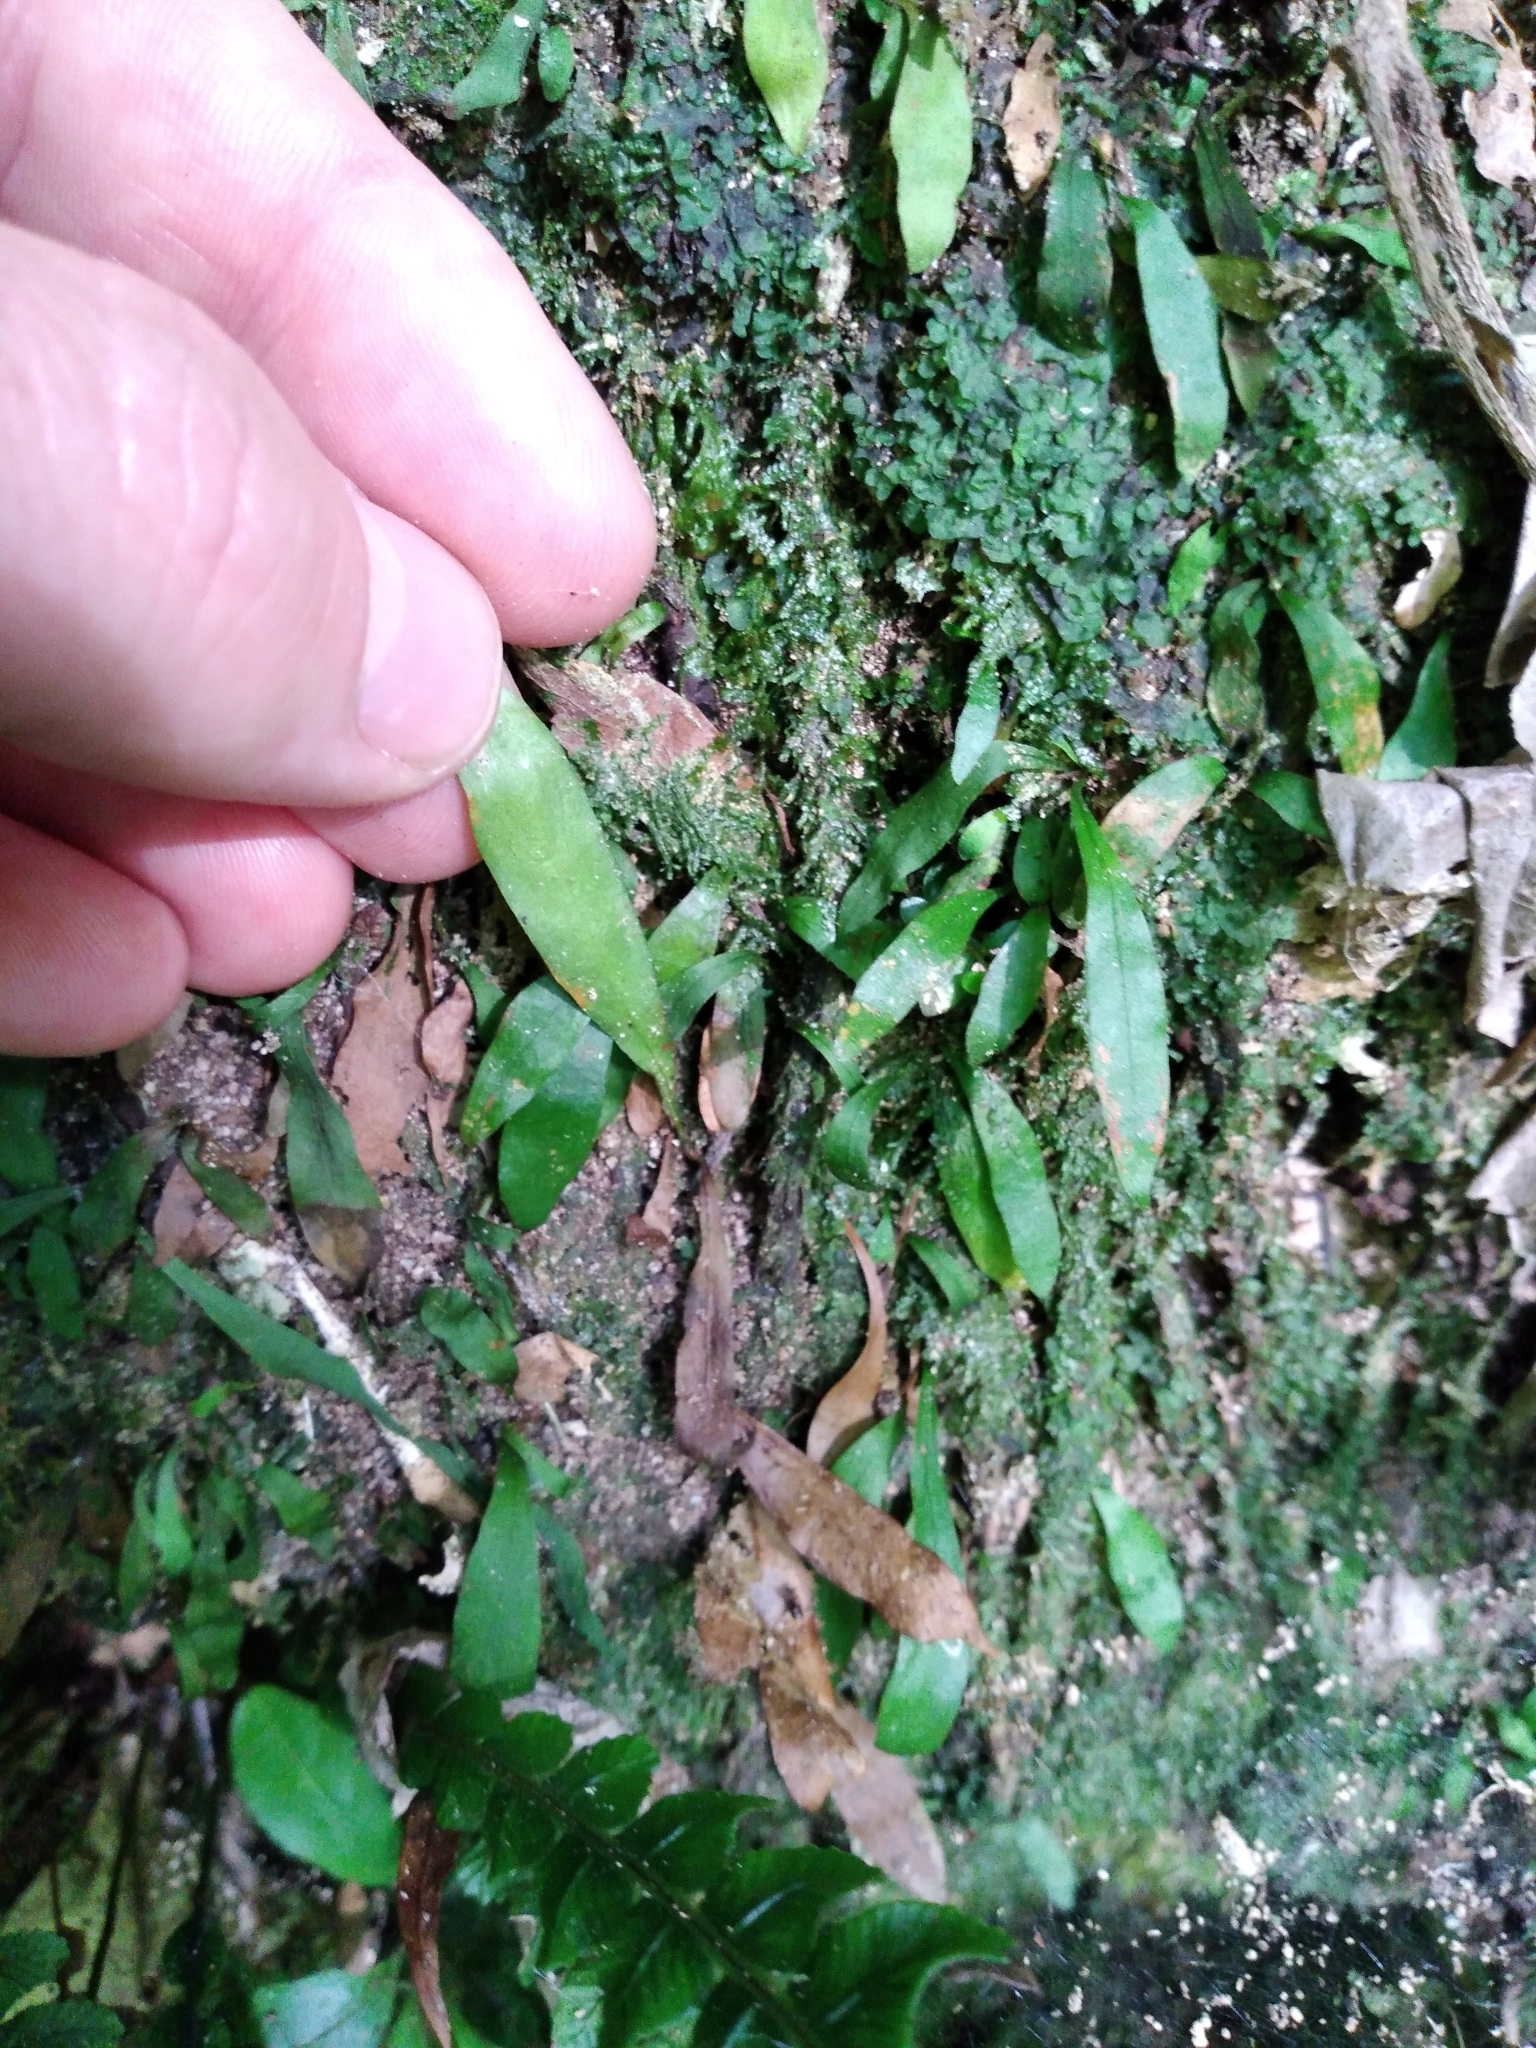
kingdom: Plantae
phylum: Tracheophyta
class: Polypodiopsida
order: Polypodiales
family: Polypodiaceae
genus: Loxogramme
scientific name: Loxogramme dictyopteris
